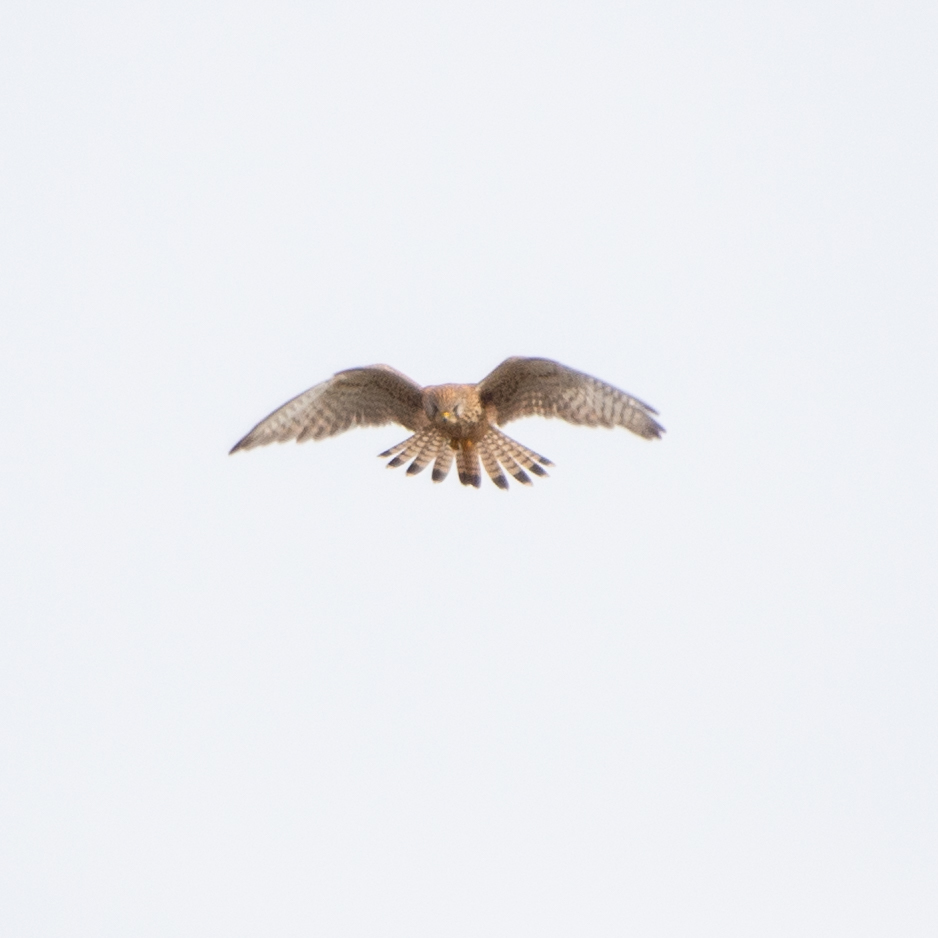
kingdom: Animalia
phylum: Chordata
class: Aves
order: Falconiformes
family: Falconidae
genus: Falco
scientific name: Falco tinnunculus
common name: Common kestrel
